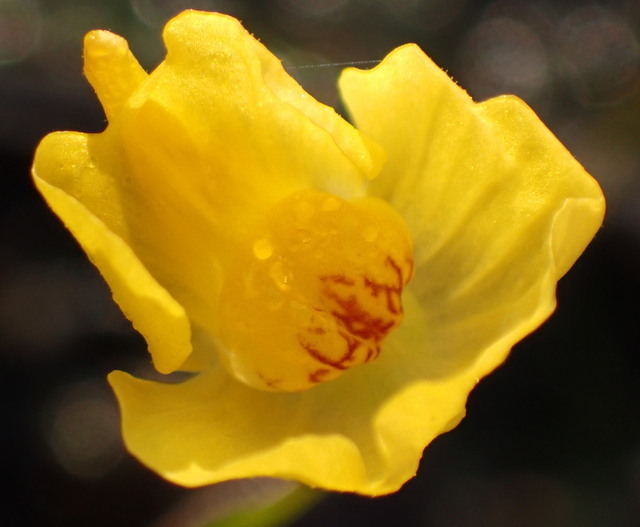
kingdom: Plantae
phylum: Tracheophyta
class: Magnoliopsida
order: Lamiales
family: Lentibulariaceae
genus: Utricularia
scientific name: Utricularia gibba
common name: Humped bladderwort
